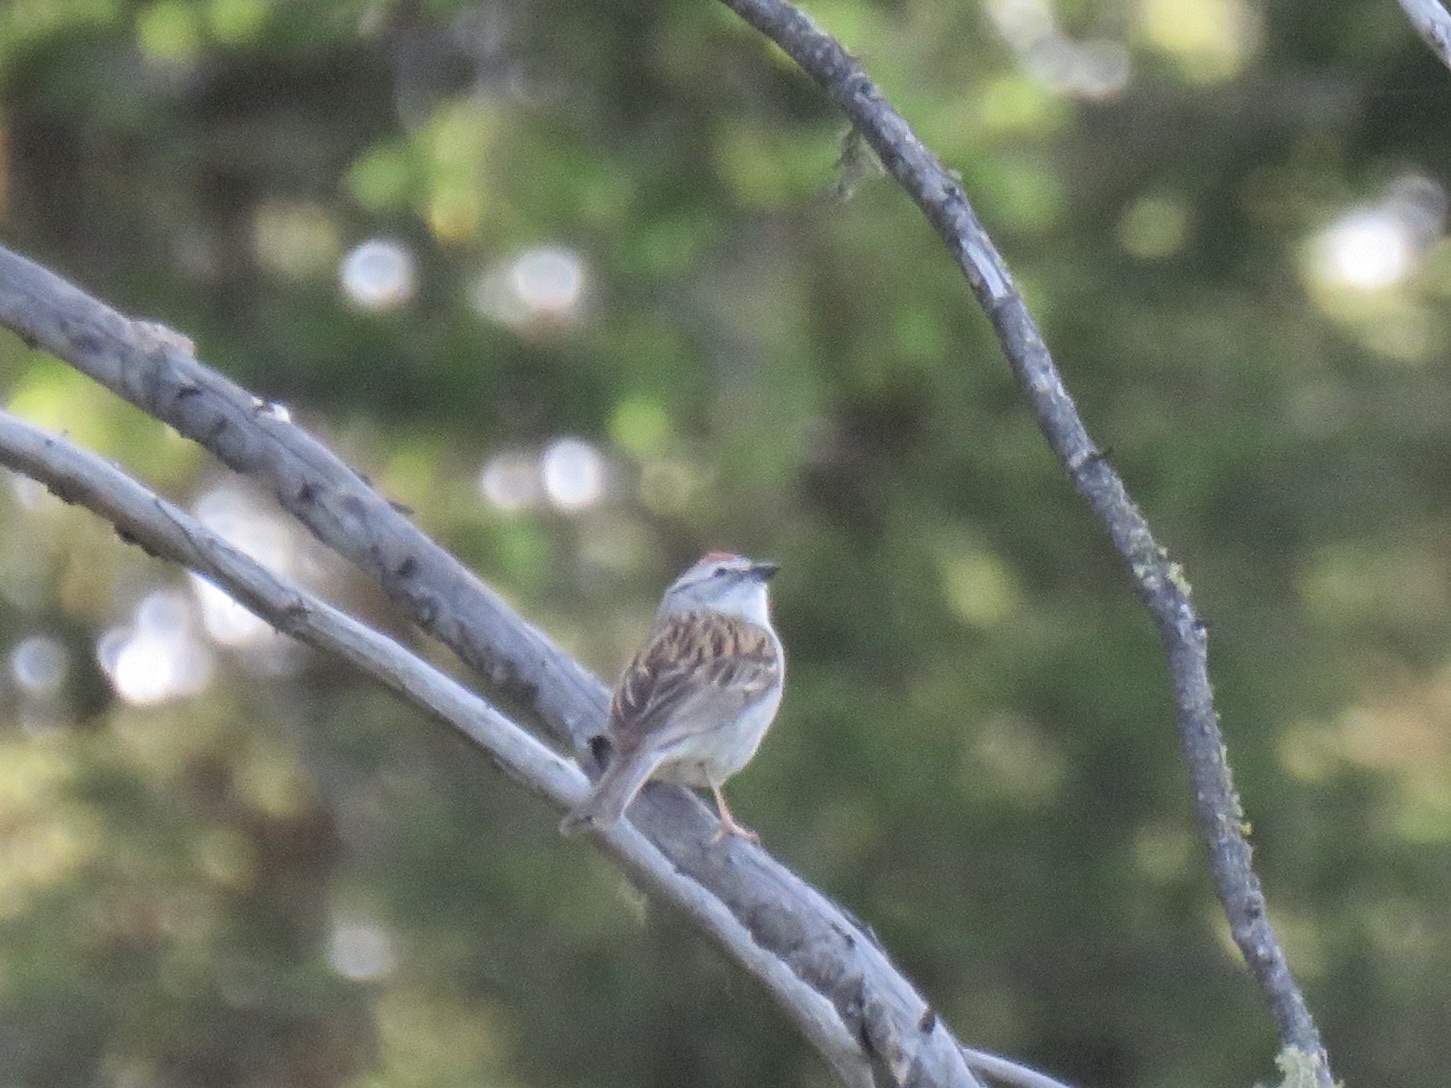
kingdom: Animalia
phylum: Chordata
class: Aves
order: Passeriformes
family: Passerellidae
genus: Spizella
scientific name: Spizella passerina
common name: Chipping sparrow
